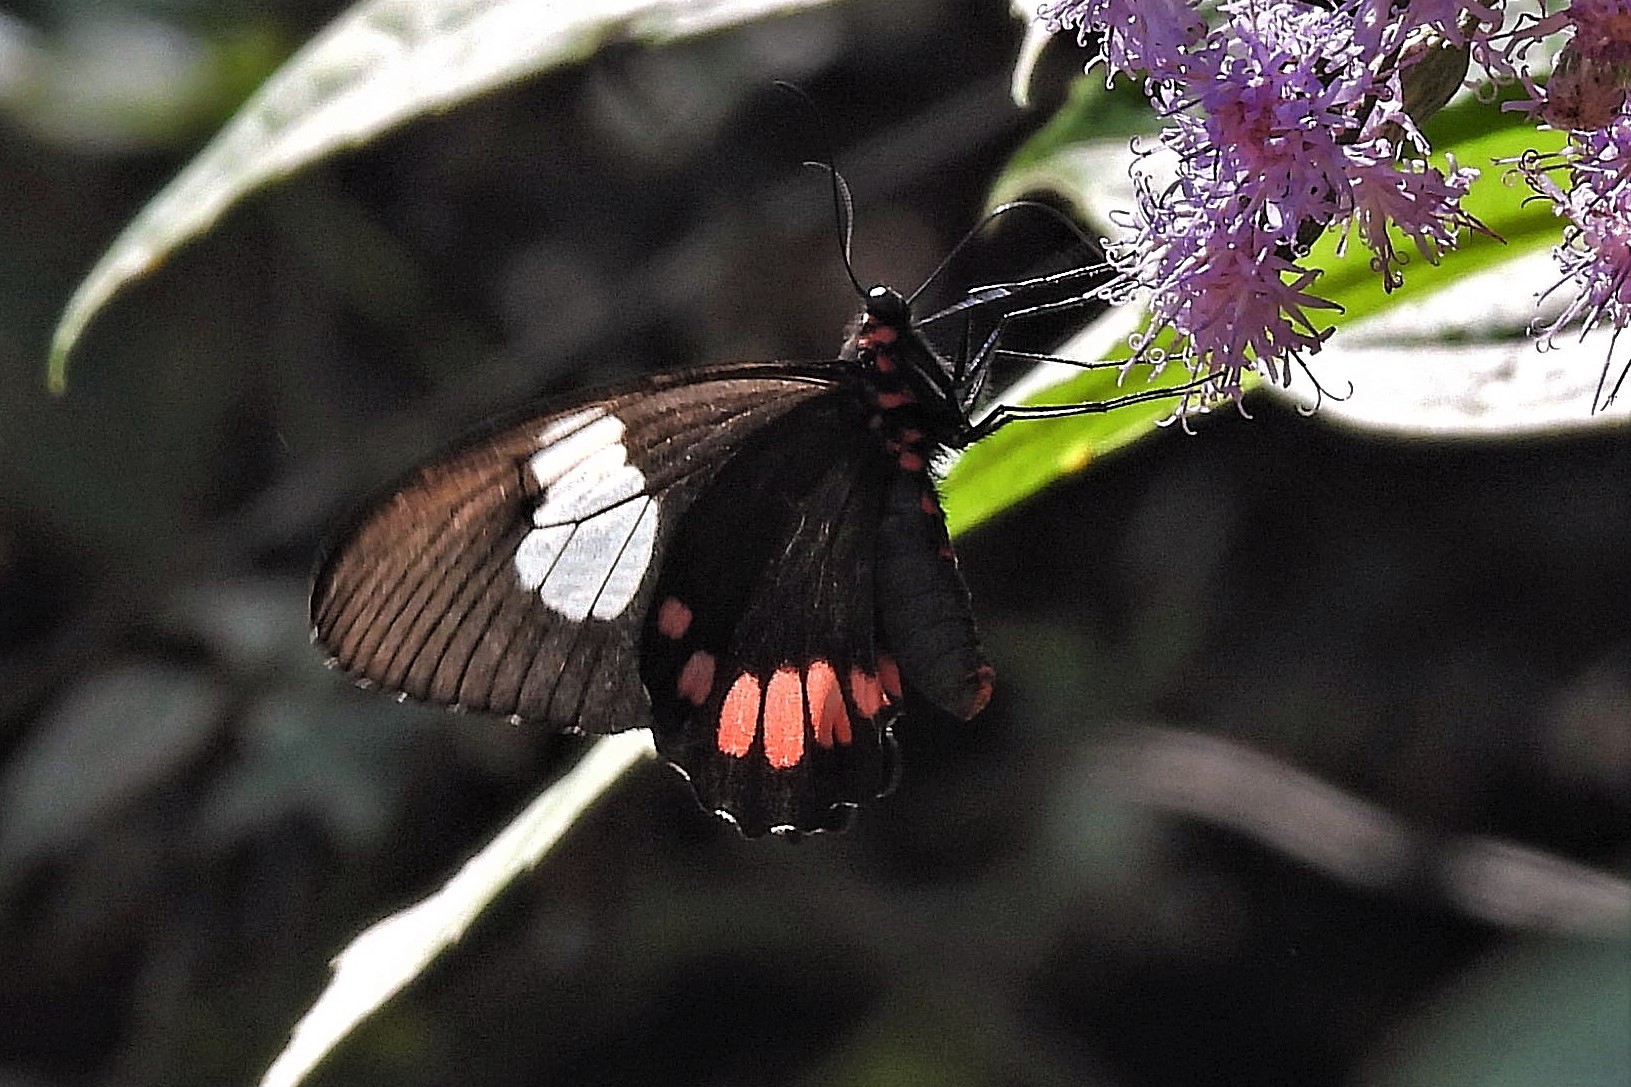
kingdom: Animalia
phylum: Arthropoda
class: Insecta
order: Lepidoptera
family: Papilionidae
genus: Parides
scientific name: Parides erithalion
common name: Variable cattleheart
